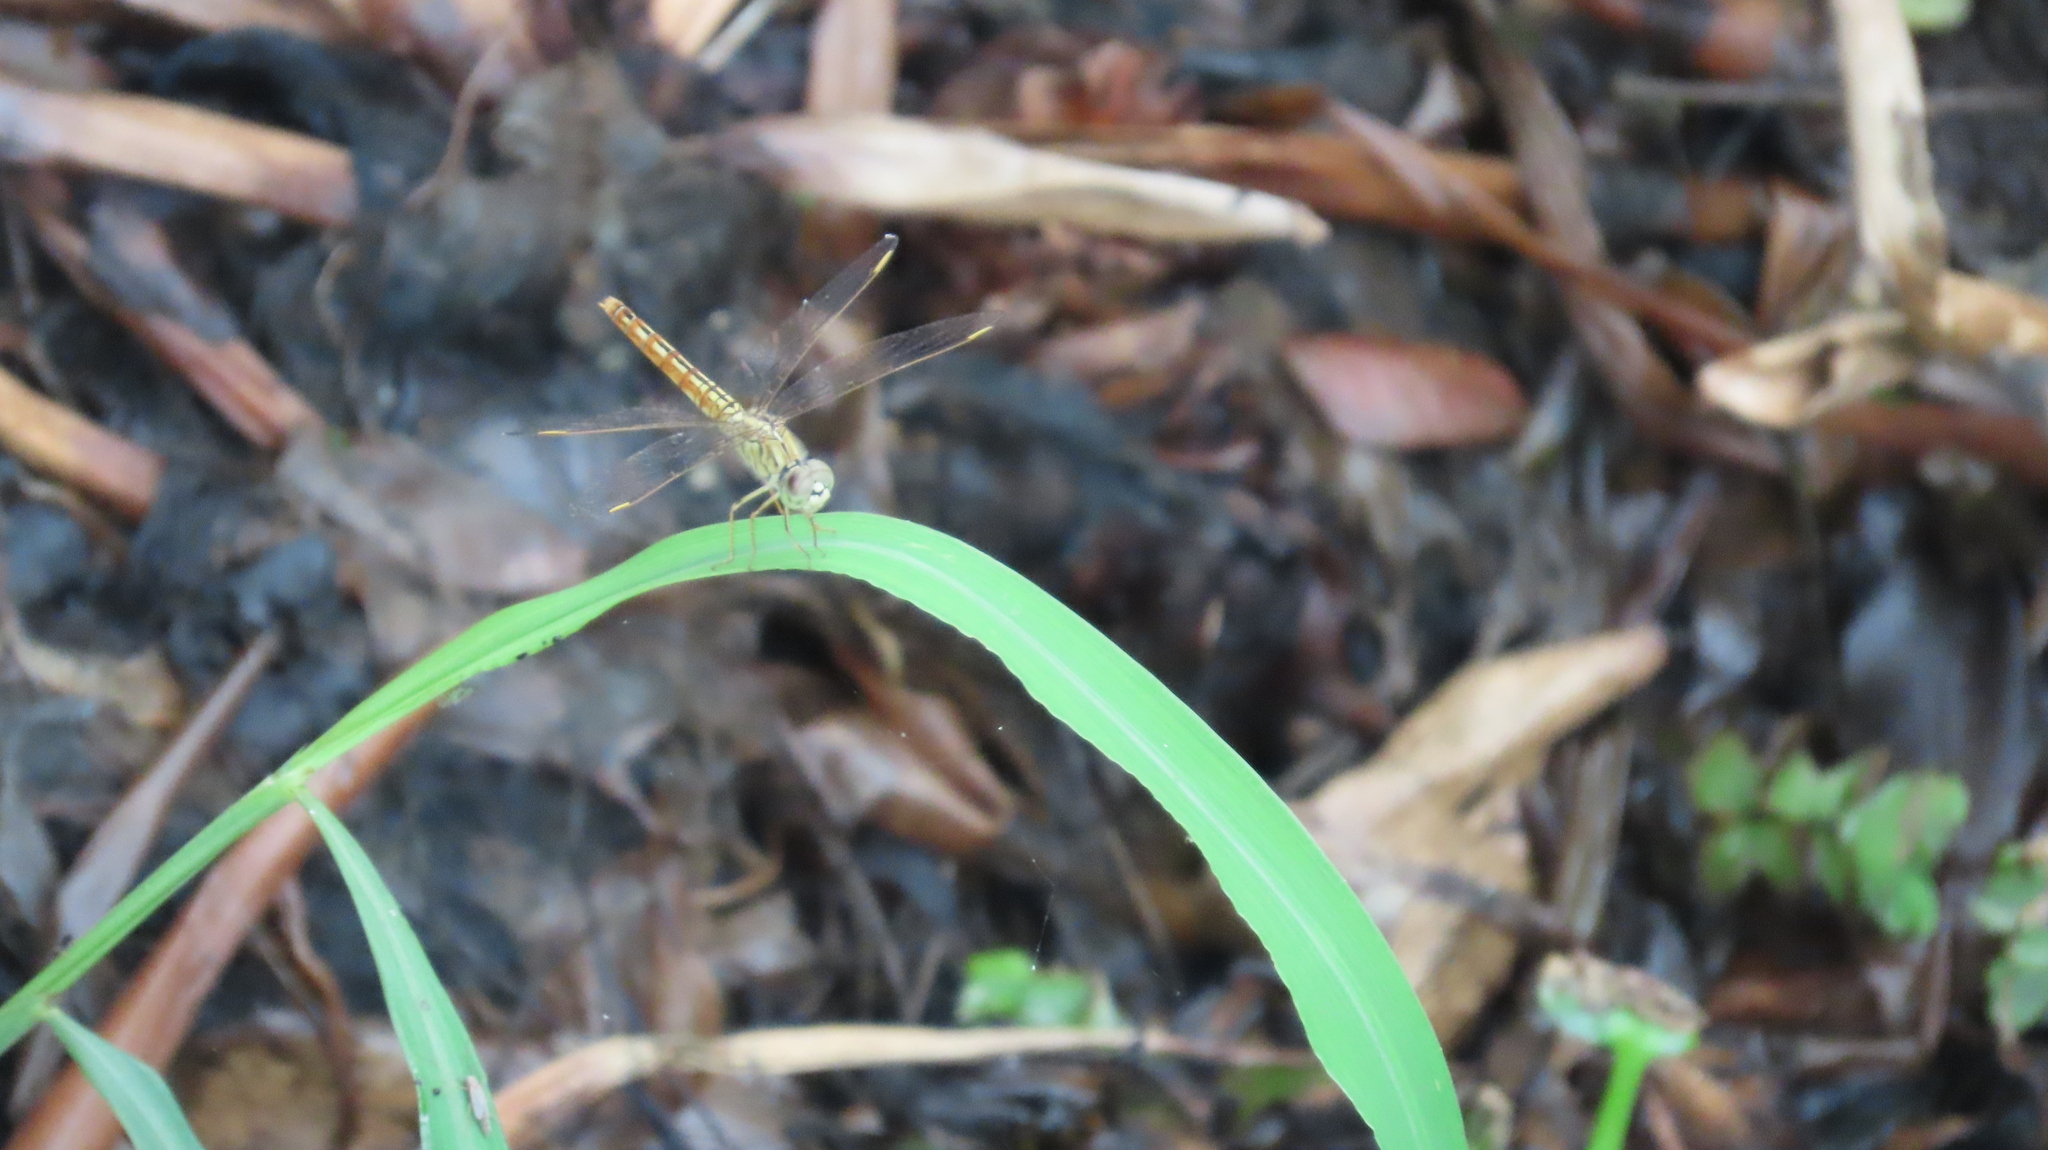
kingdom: Animalia
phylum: Arthropoda
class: Insecta
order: Odonata
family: Libellulidae
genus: Brachythemis
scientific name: Brachythemis contaminata
